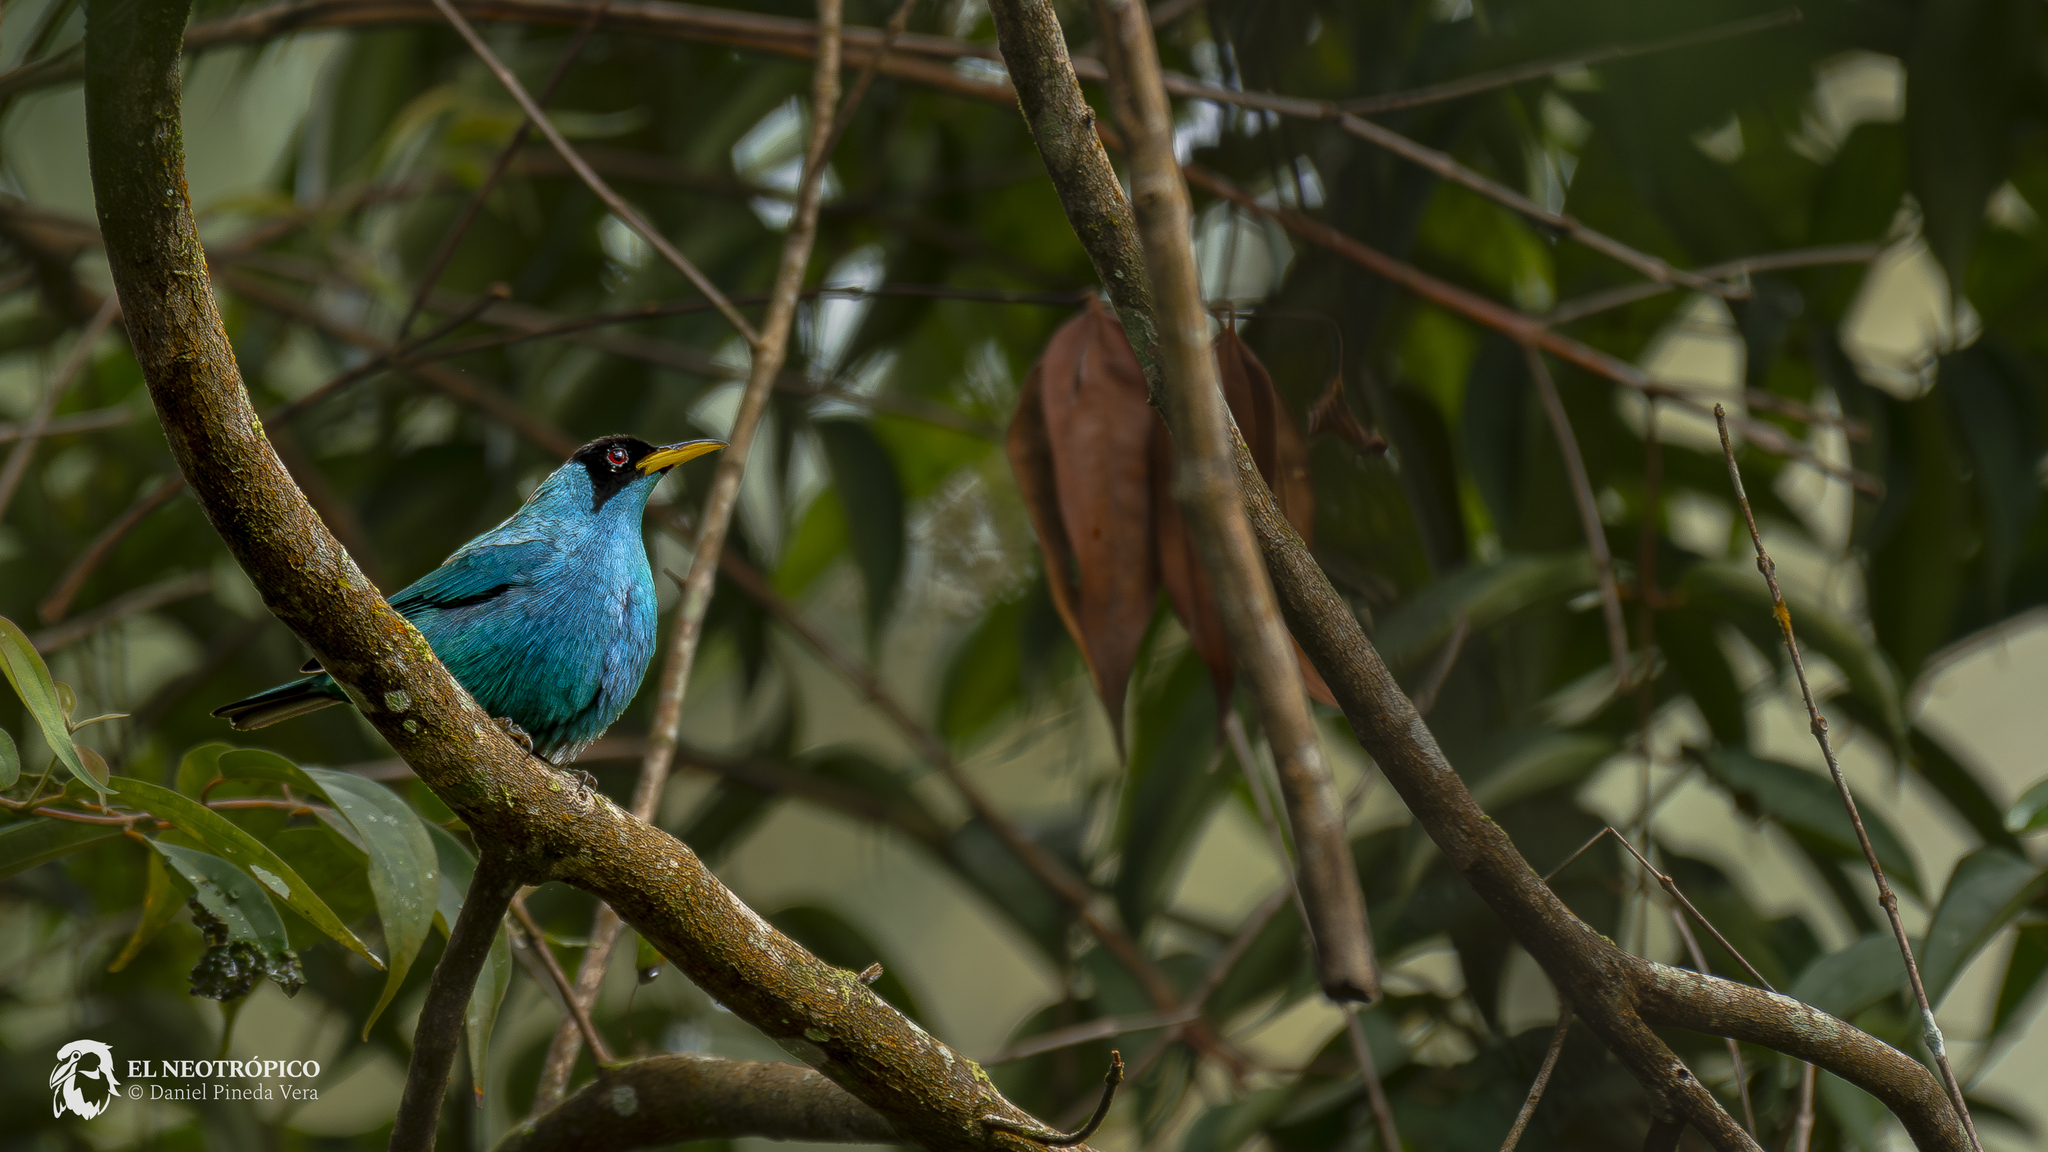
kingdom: Animalia
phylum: Chordata
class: Aves
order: Passeriformes
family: Thraupidae
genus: Chlorophanes
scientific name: Chlorophanes spiza
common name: Green honeycreeper
